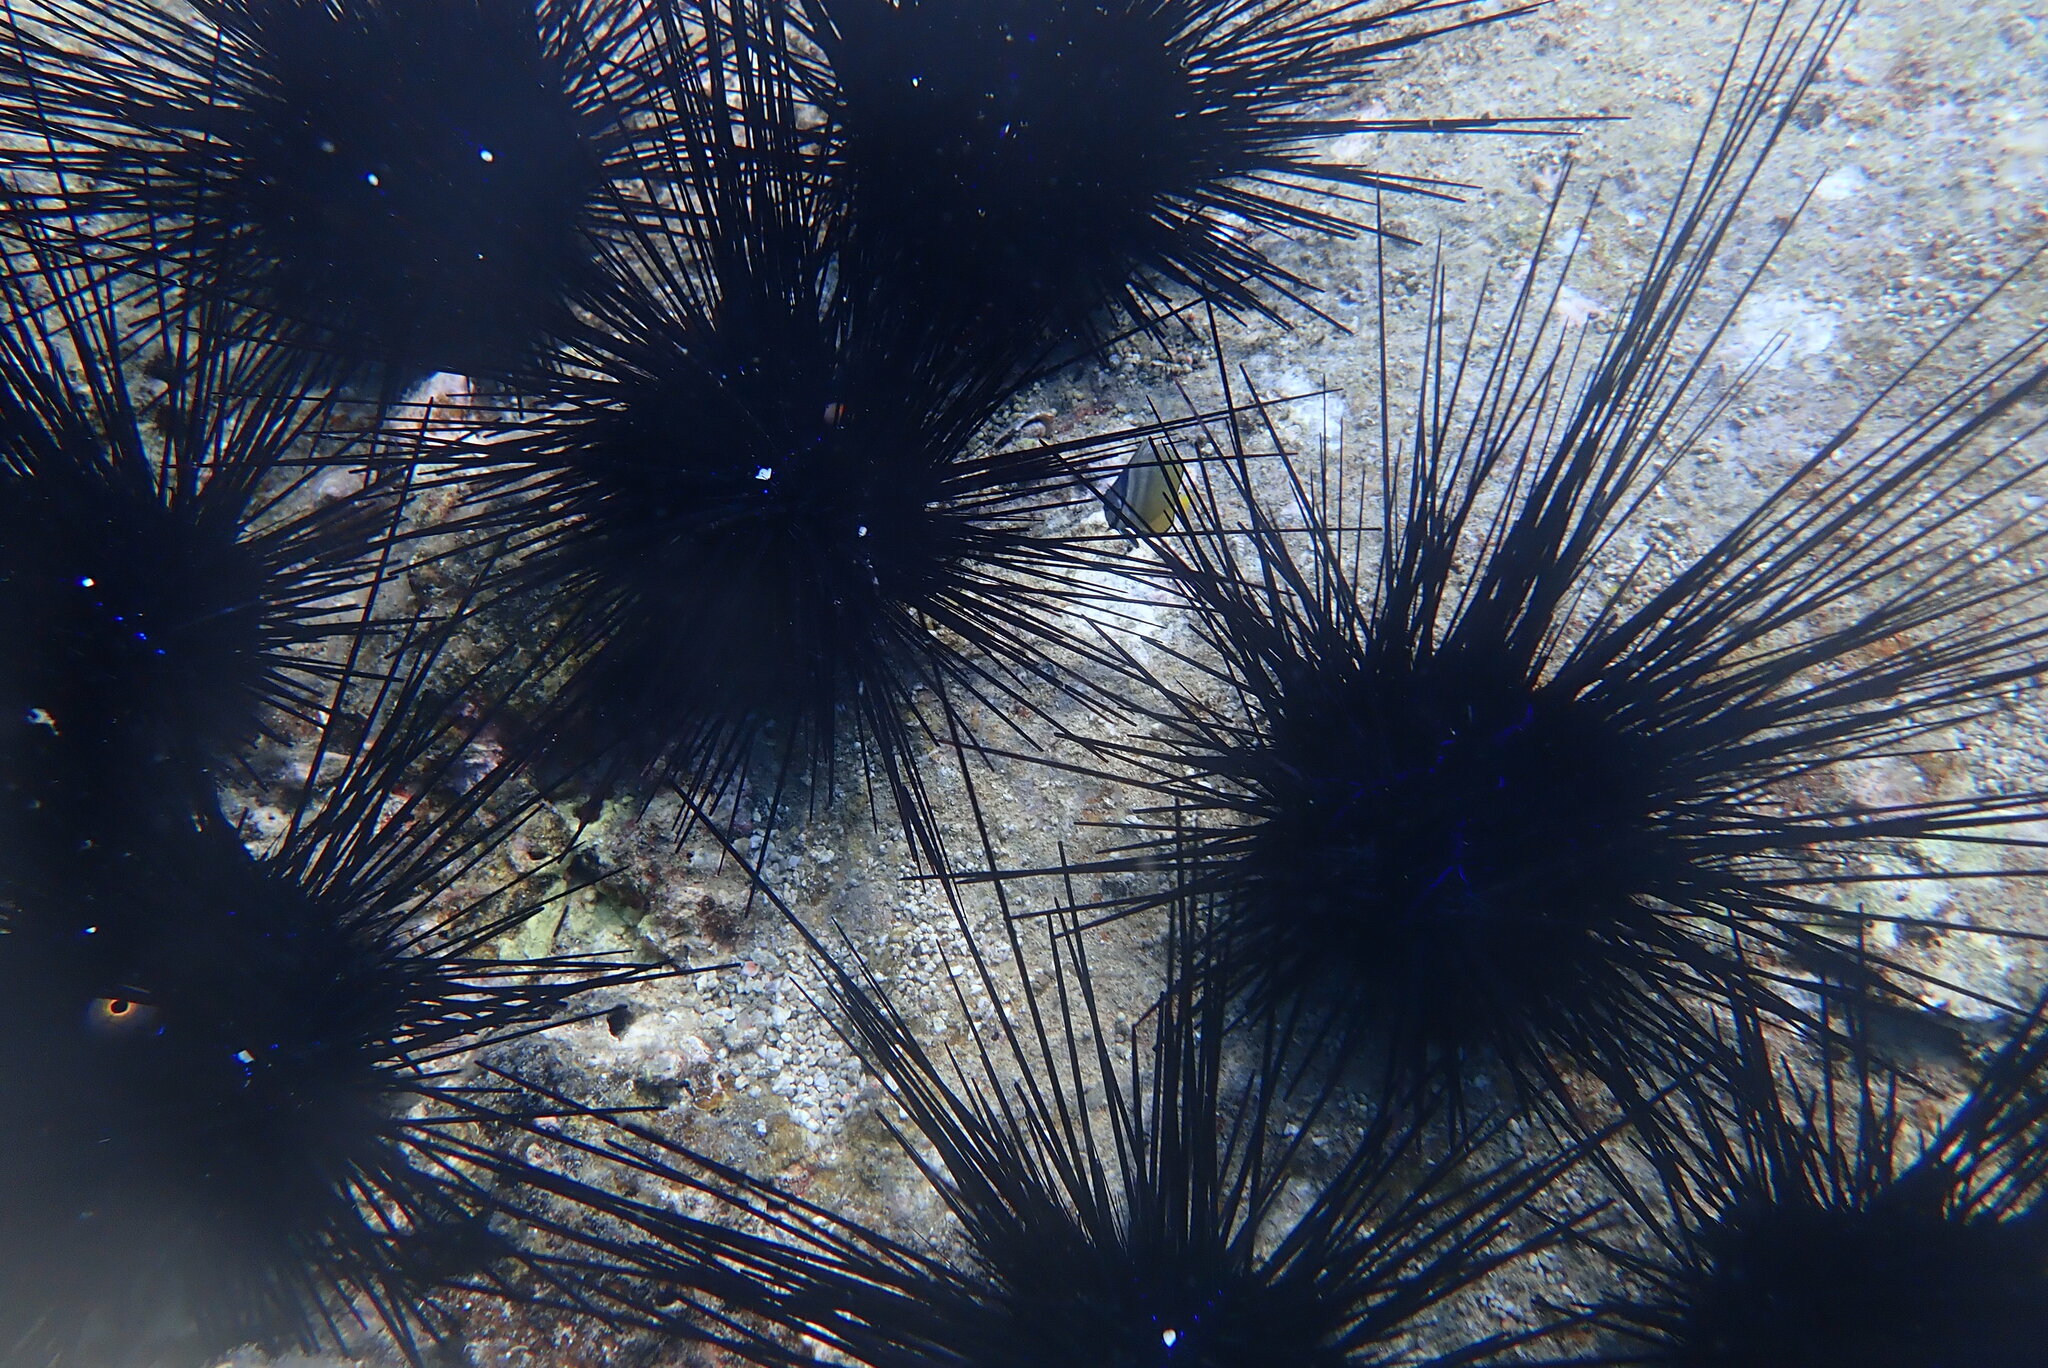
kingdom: Animalia
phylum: Echinodermata
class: Echinoidea
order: Diadematoida
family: Diadematidae
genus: Diadema
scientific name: Diadema setosum
